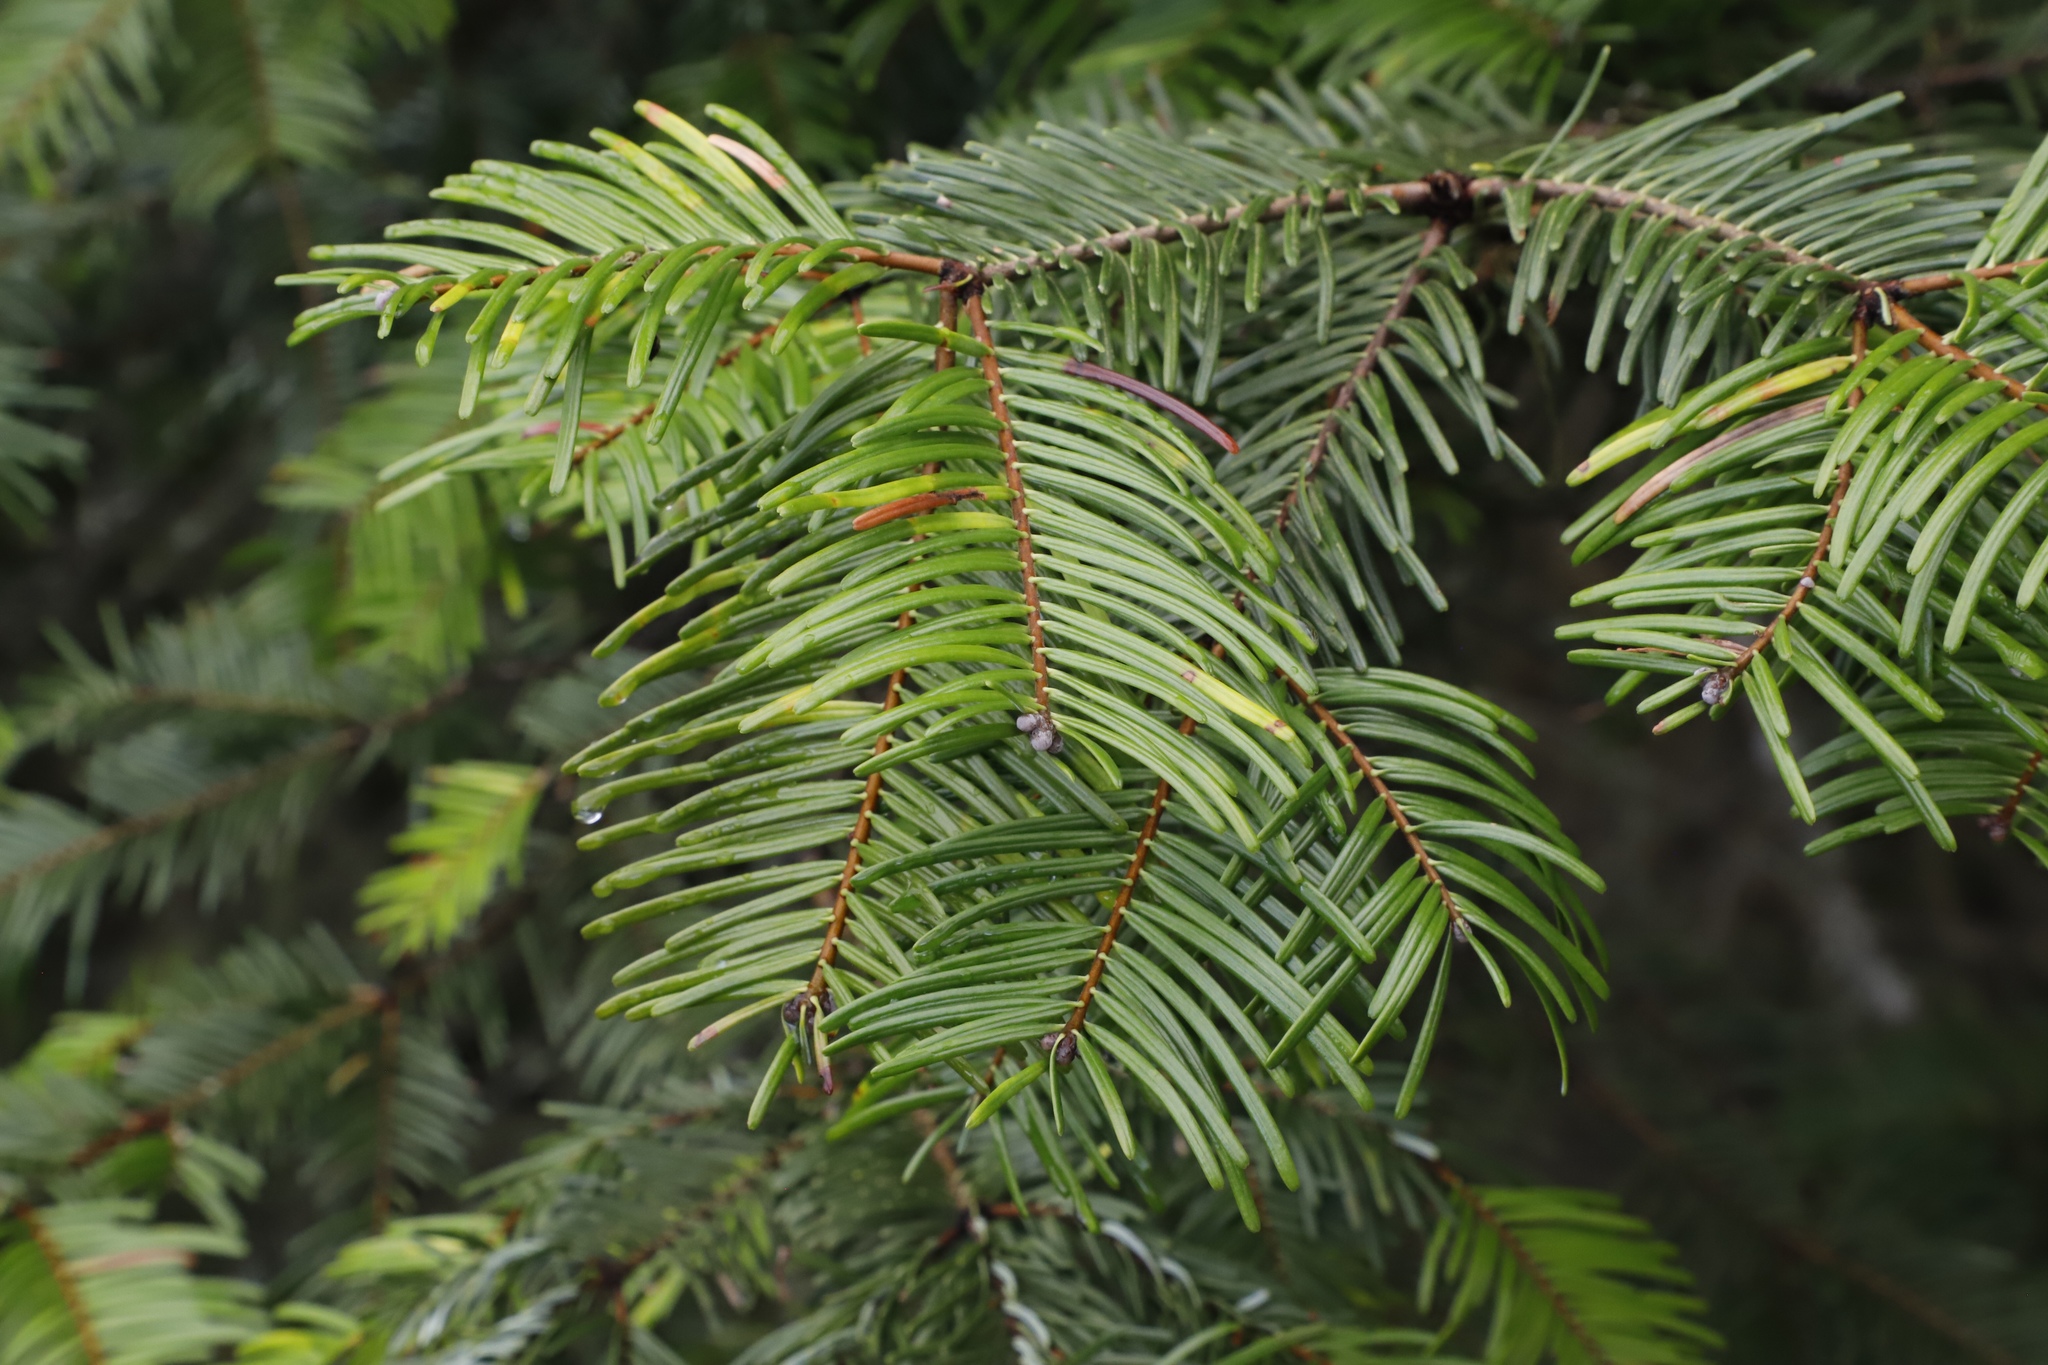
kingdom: Plantae
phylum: Tracheophyta
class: Pinopsida
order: Pinales
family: Pinaceae
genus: Abies
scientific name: Abies grandis
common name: Giant fir
